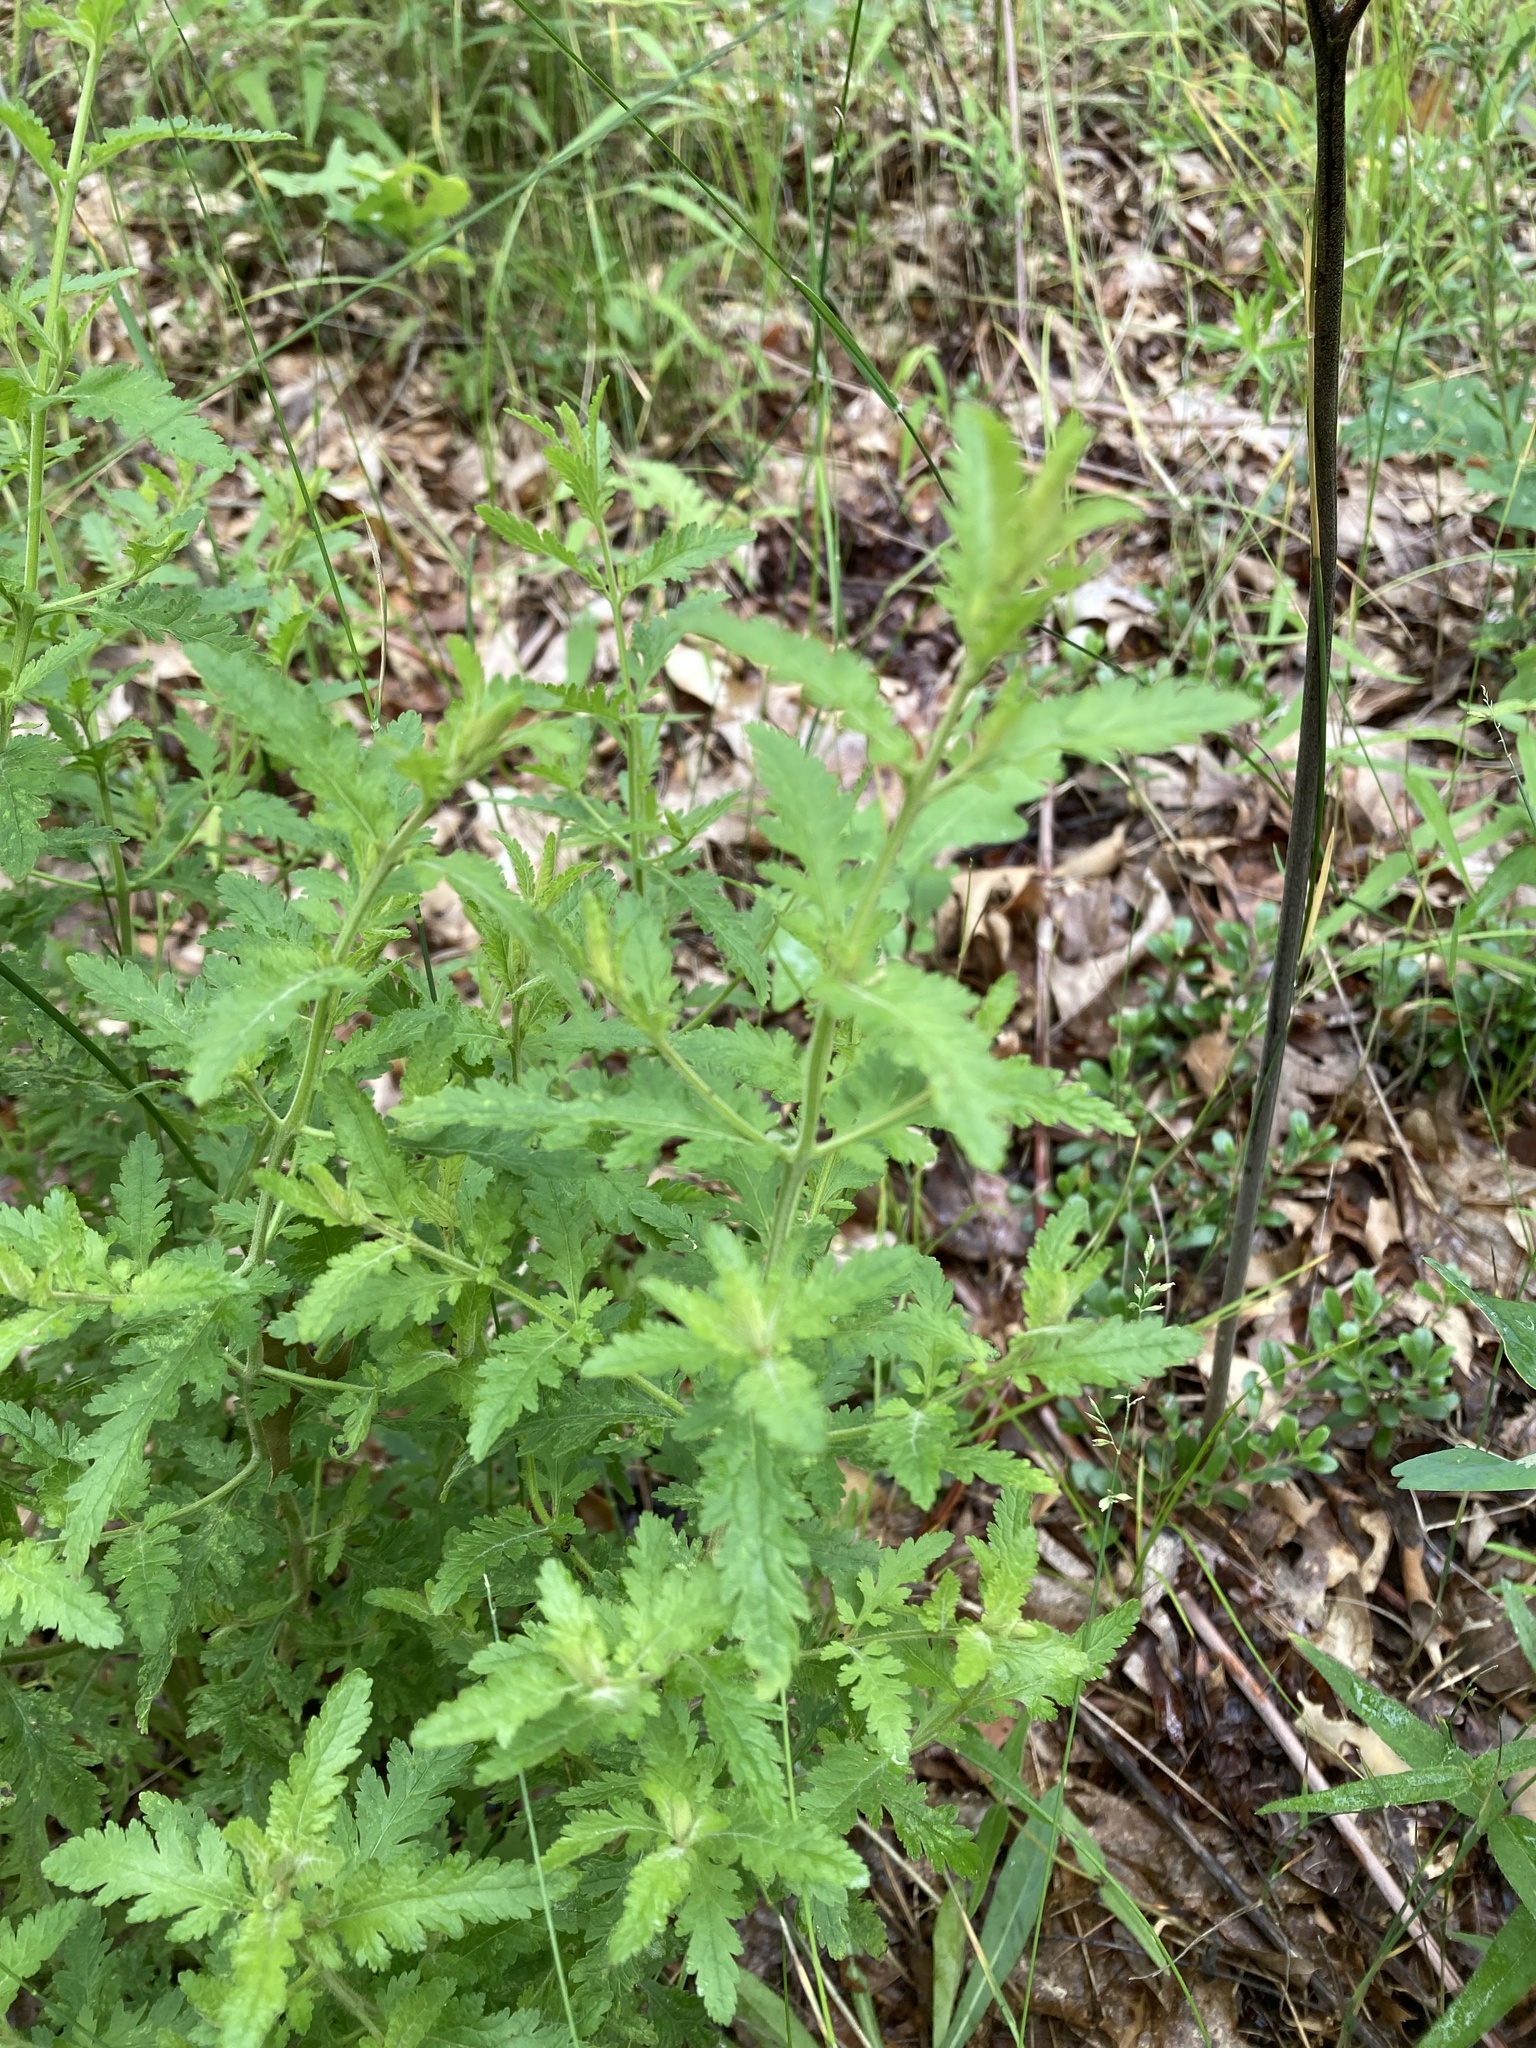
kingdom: Plantae
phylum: Tracheophyta
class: Magnoliopsida
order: Lamiales
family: Orobanchaceae
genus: Aureolaria
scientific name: Aureolaria pedicularia
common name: Annual false foxglove
